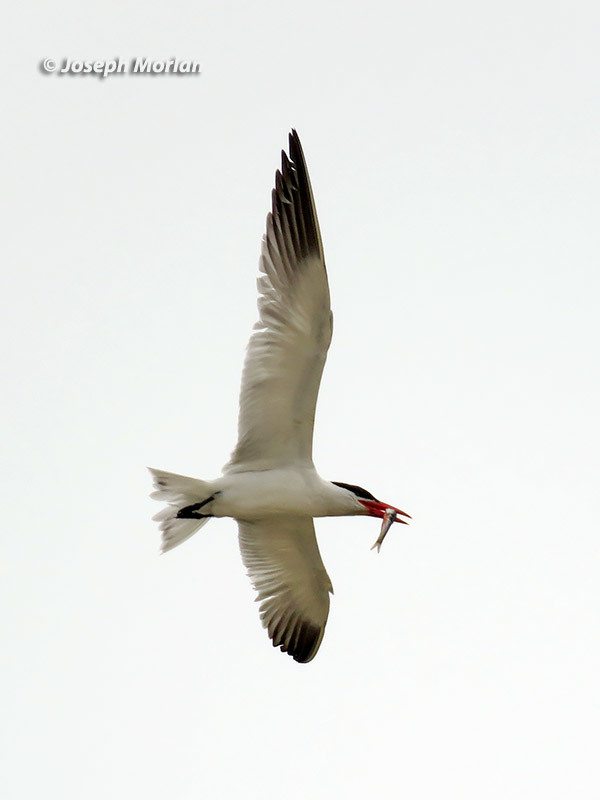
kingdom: Animalia
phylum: Chordata
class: Aves
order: Charadriiformes
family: Laridae
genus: Hydroprogne
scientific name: Hydroprogne caspia
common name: Caspian tern
